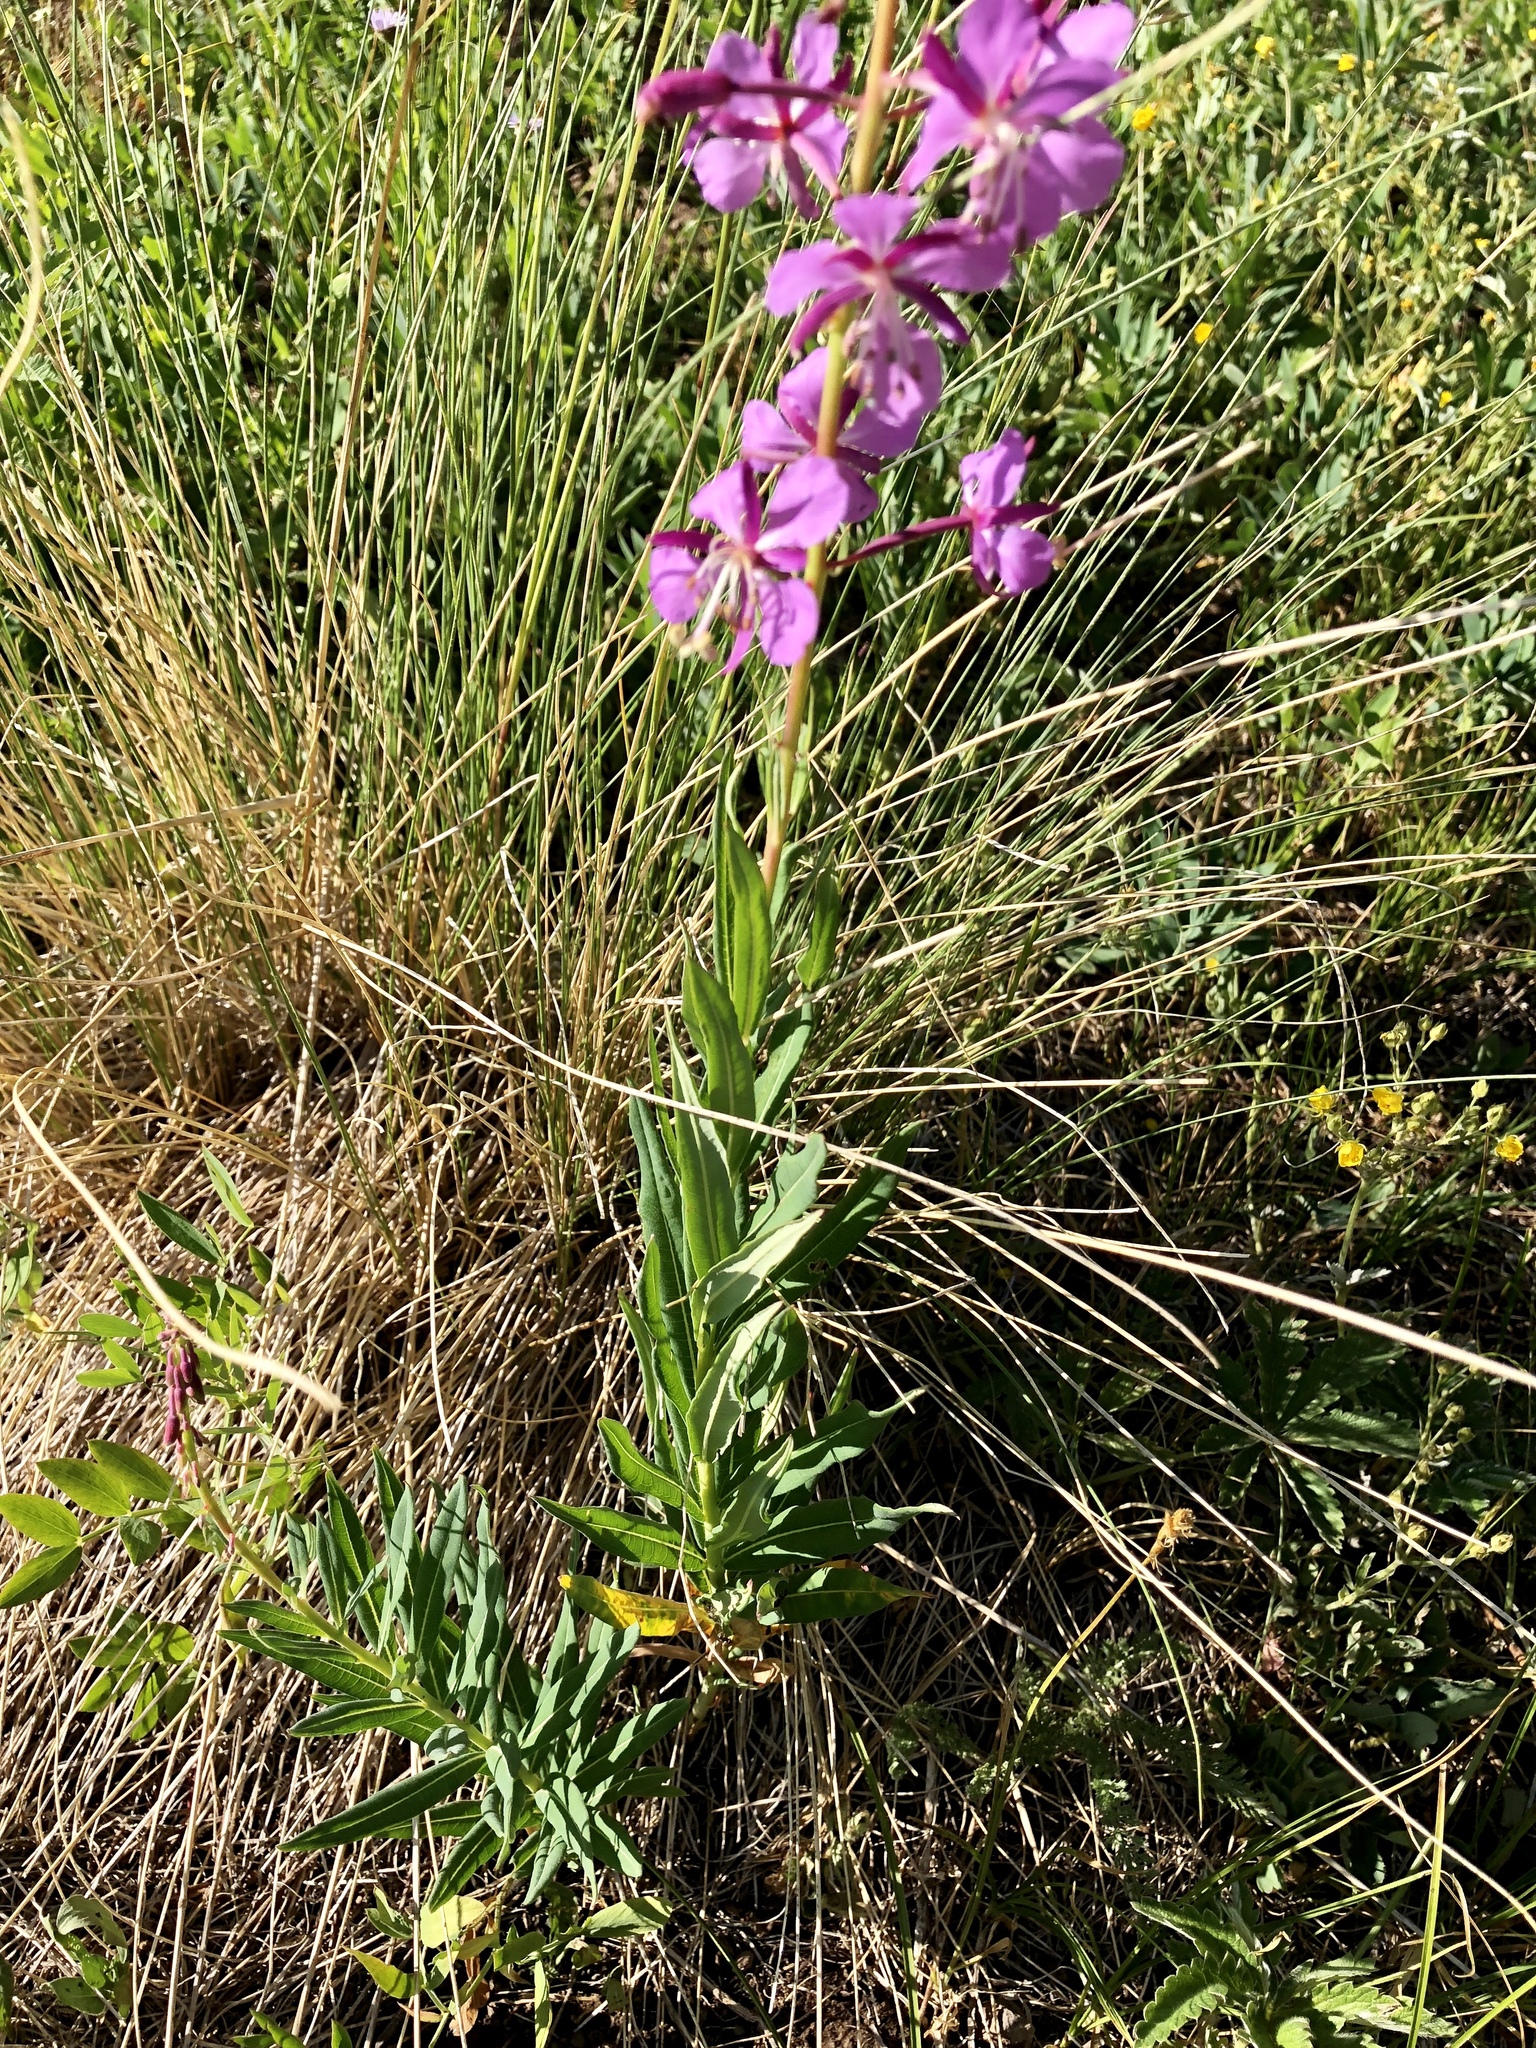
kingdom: Plantae
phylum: Tracheophyta
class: Magnoliopsida
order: Myrtales
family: Onagraceae
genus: Chamaenerion
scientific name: Chamaenerion angustifolium
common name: Fireweed
